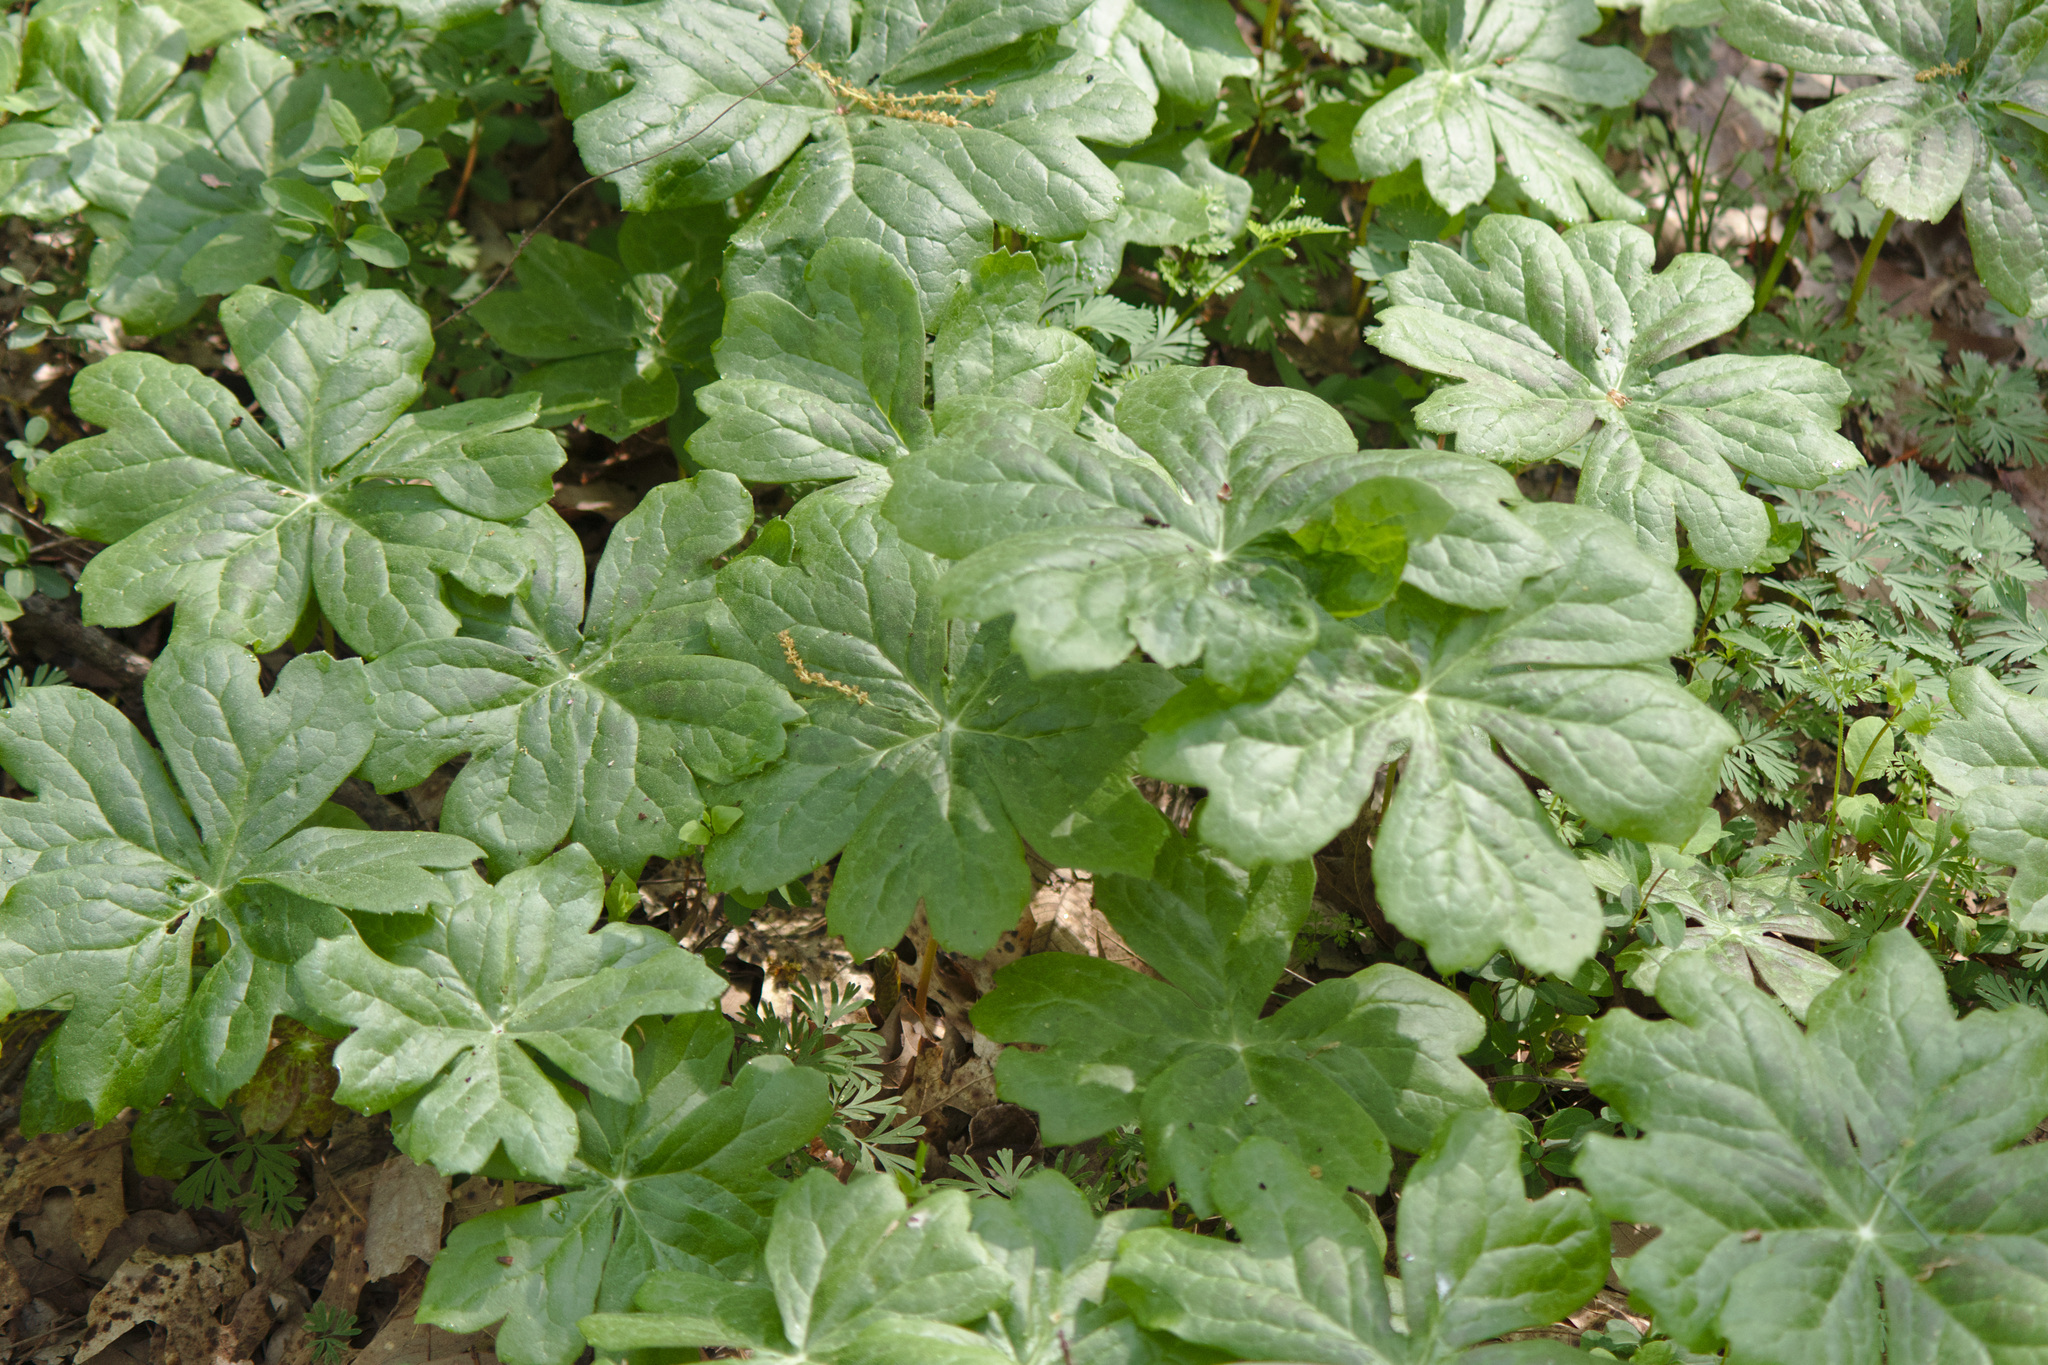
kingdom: Plantae
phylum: Tracheophyta
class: Magnoliopsida
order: Ranunculales
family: Berberidaceae
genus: Podophyllum
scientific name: Podophyllum peltatum
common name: Wild mandrake
